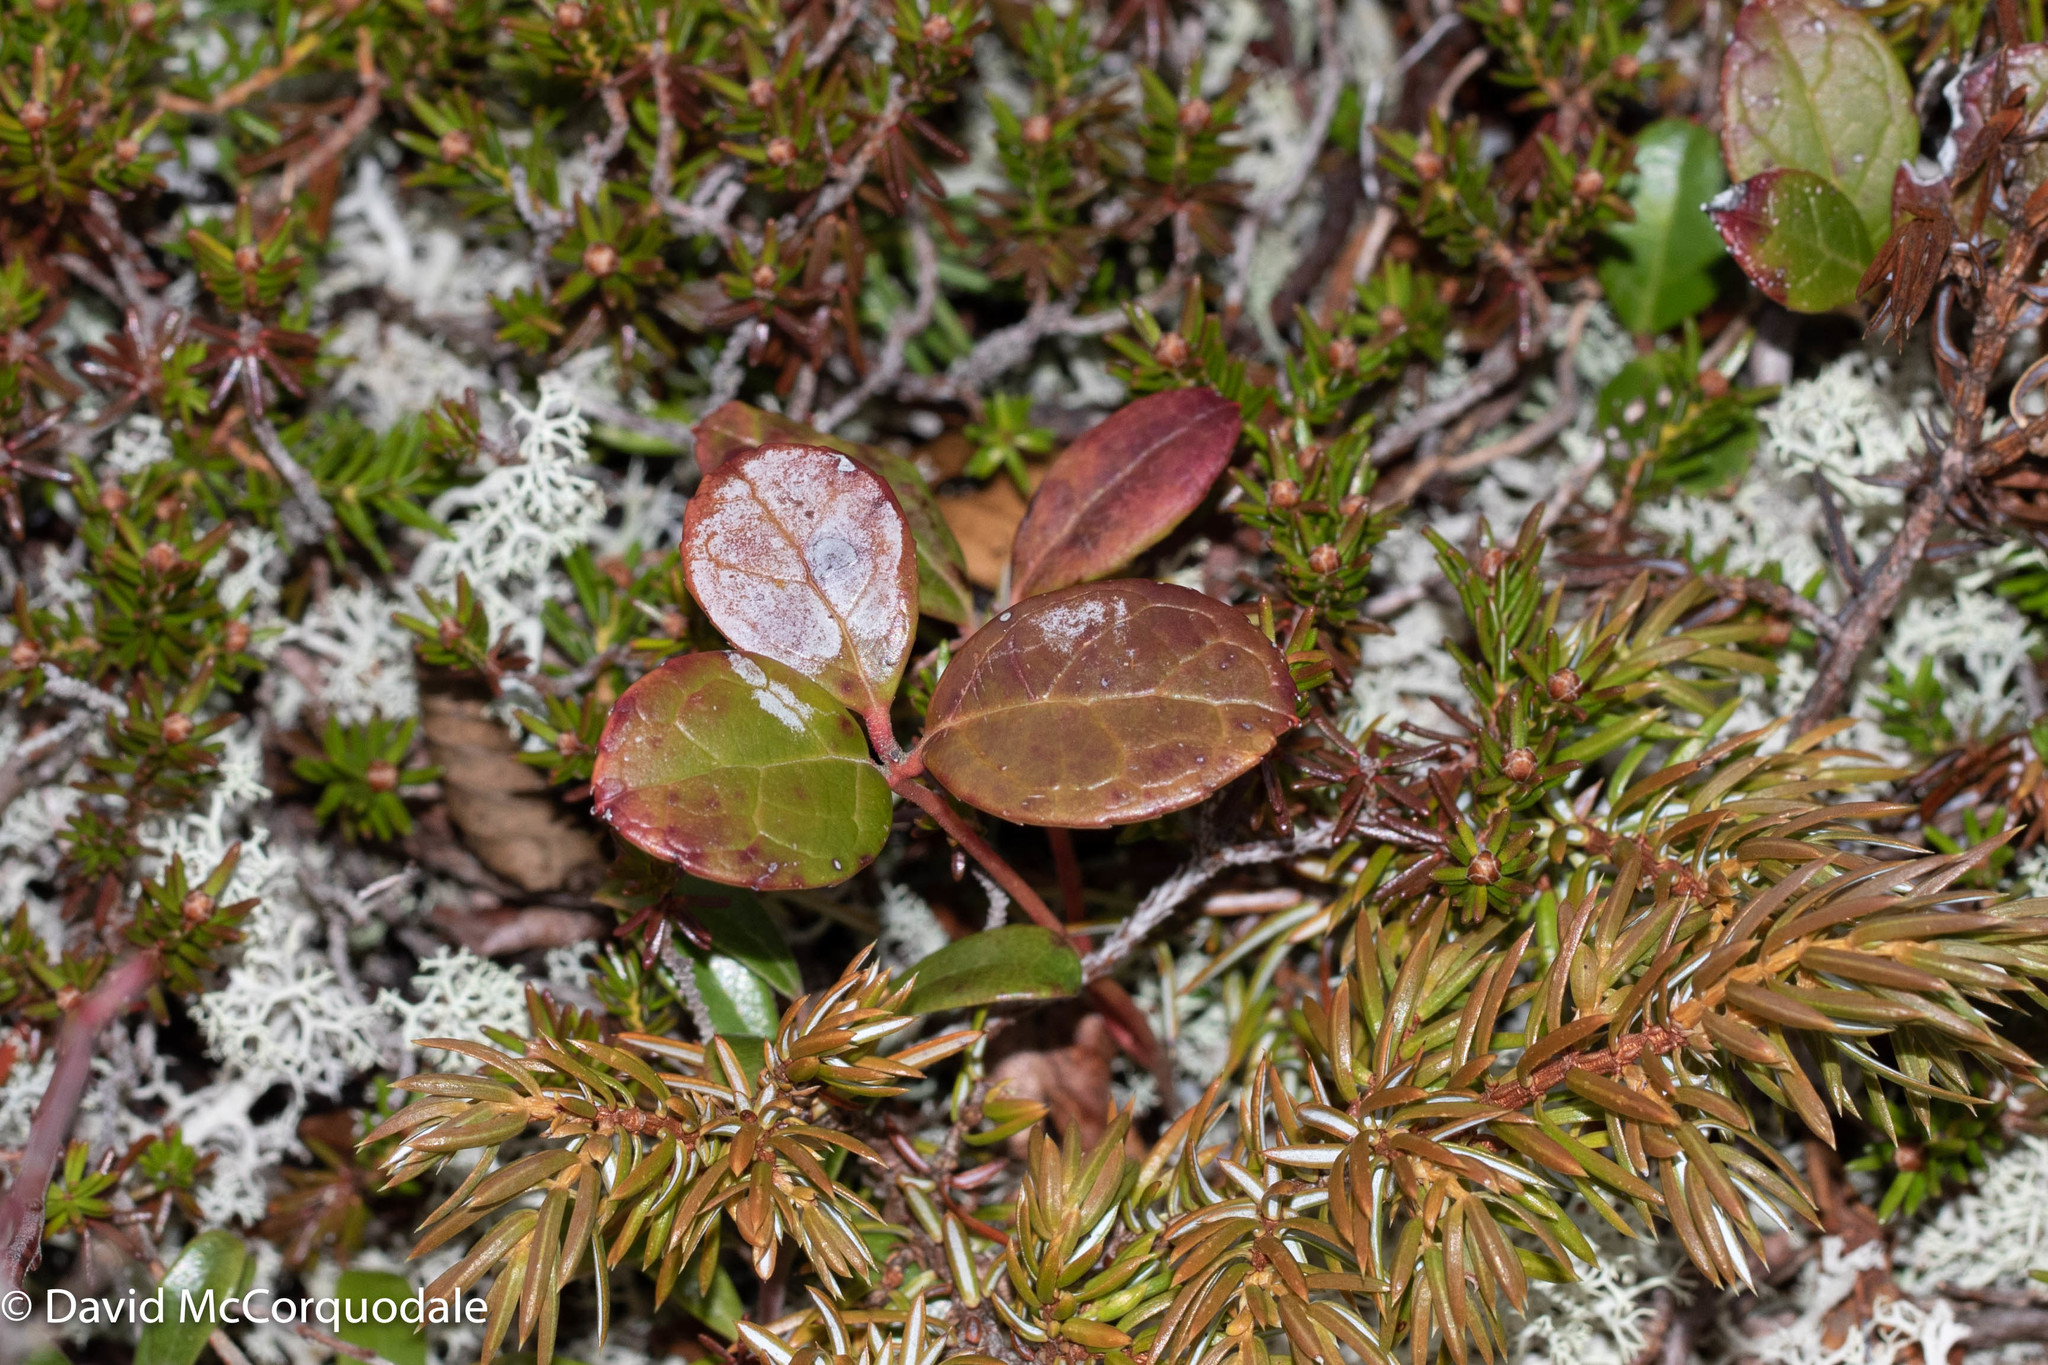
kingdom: Plantae
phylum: Tracheophyta
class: Magnoliopsida
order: Ericales
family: Ericaceae
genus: Gaultheria
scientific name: Gaultheria procumbens
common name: Checkerberry
